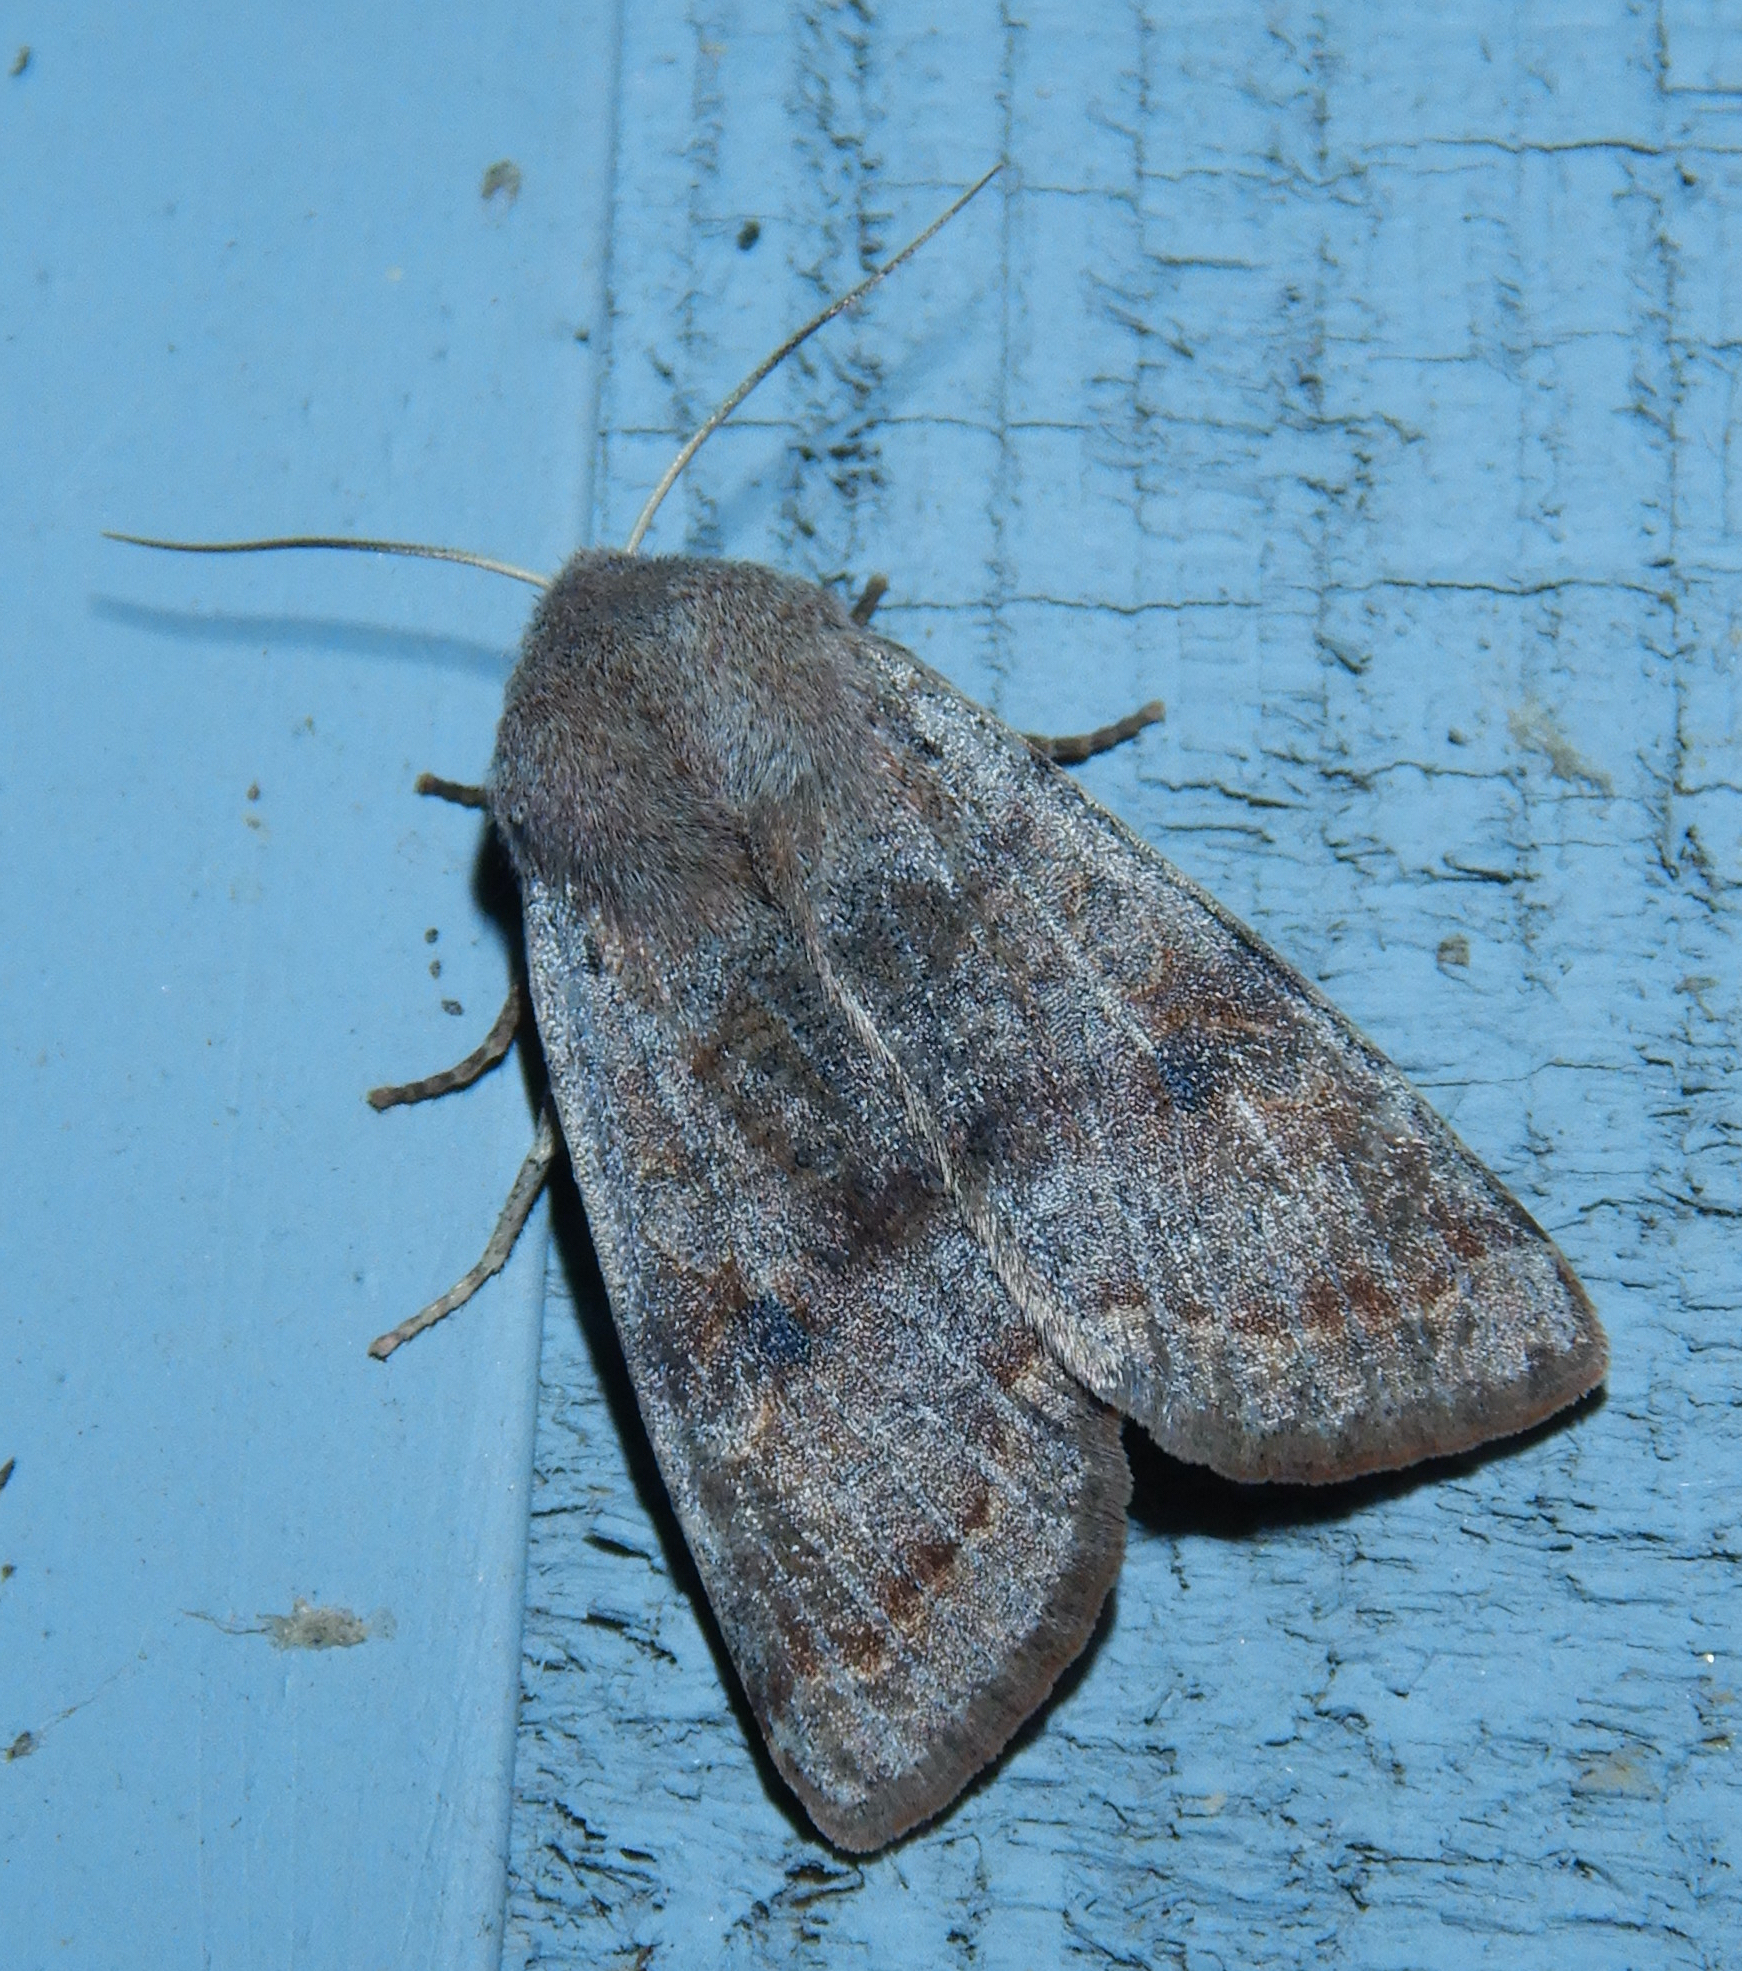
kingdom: Animalia
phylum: Arthropoda
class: Insecta
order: Lepidoptera
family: Noctuidae
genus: Orthosia
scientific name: Orthosia hibisci
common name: Green fruitworm
